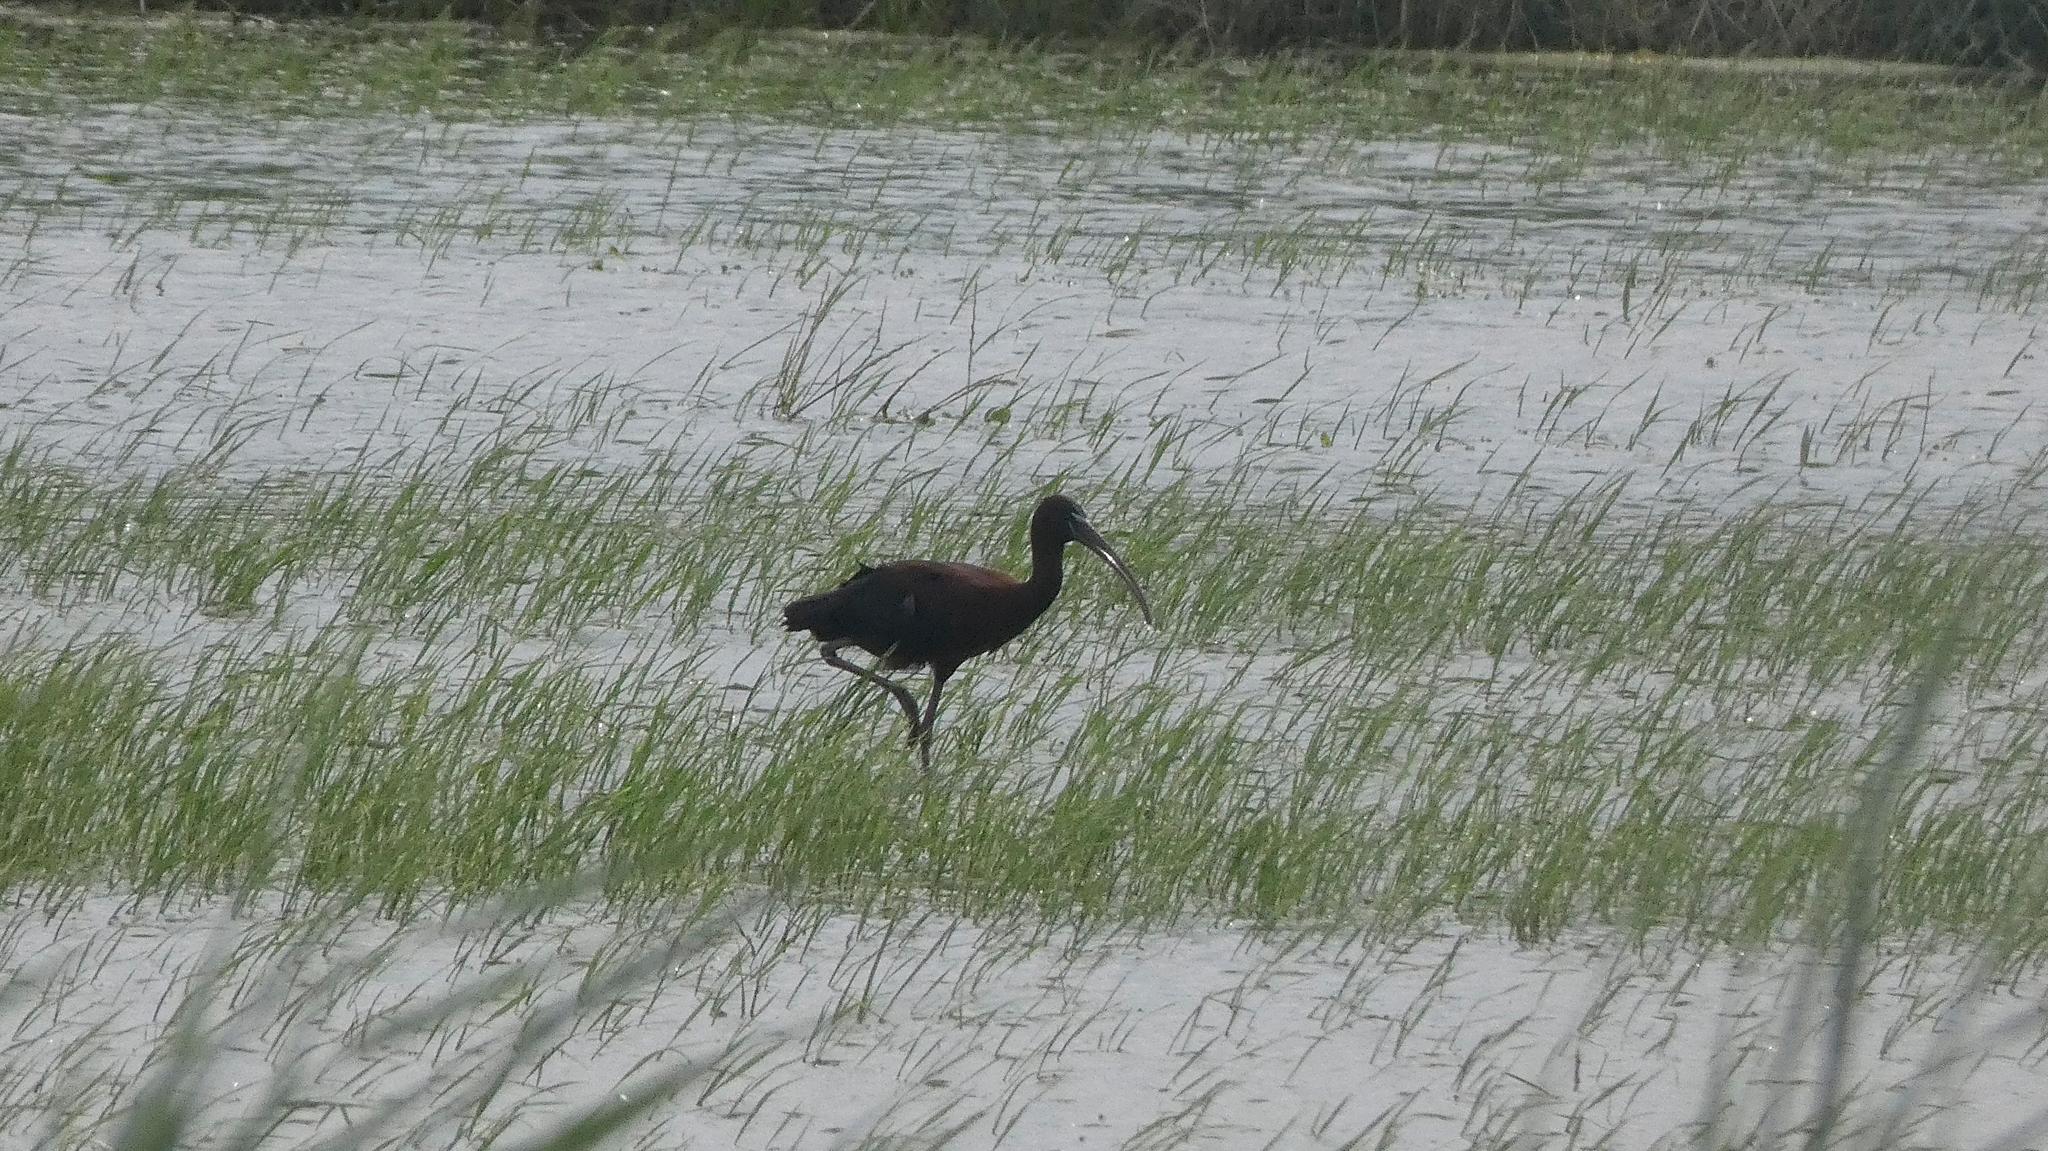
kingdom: Animalia
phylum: Chordata
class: Aves
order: Pelecaniformes
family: Threskiornithidae
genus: Plegadis
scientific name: Plegadis falcinellus
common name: Glossy ibis
